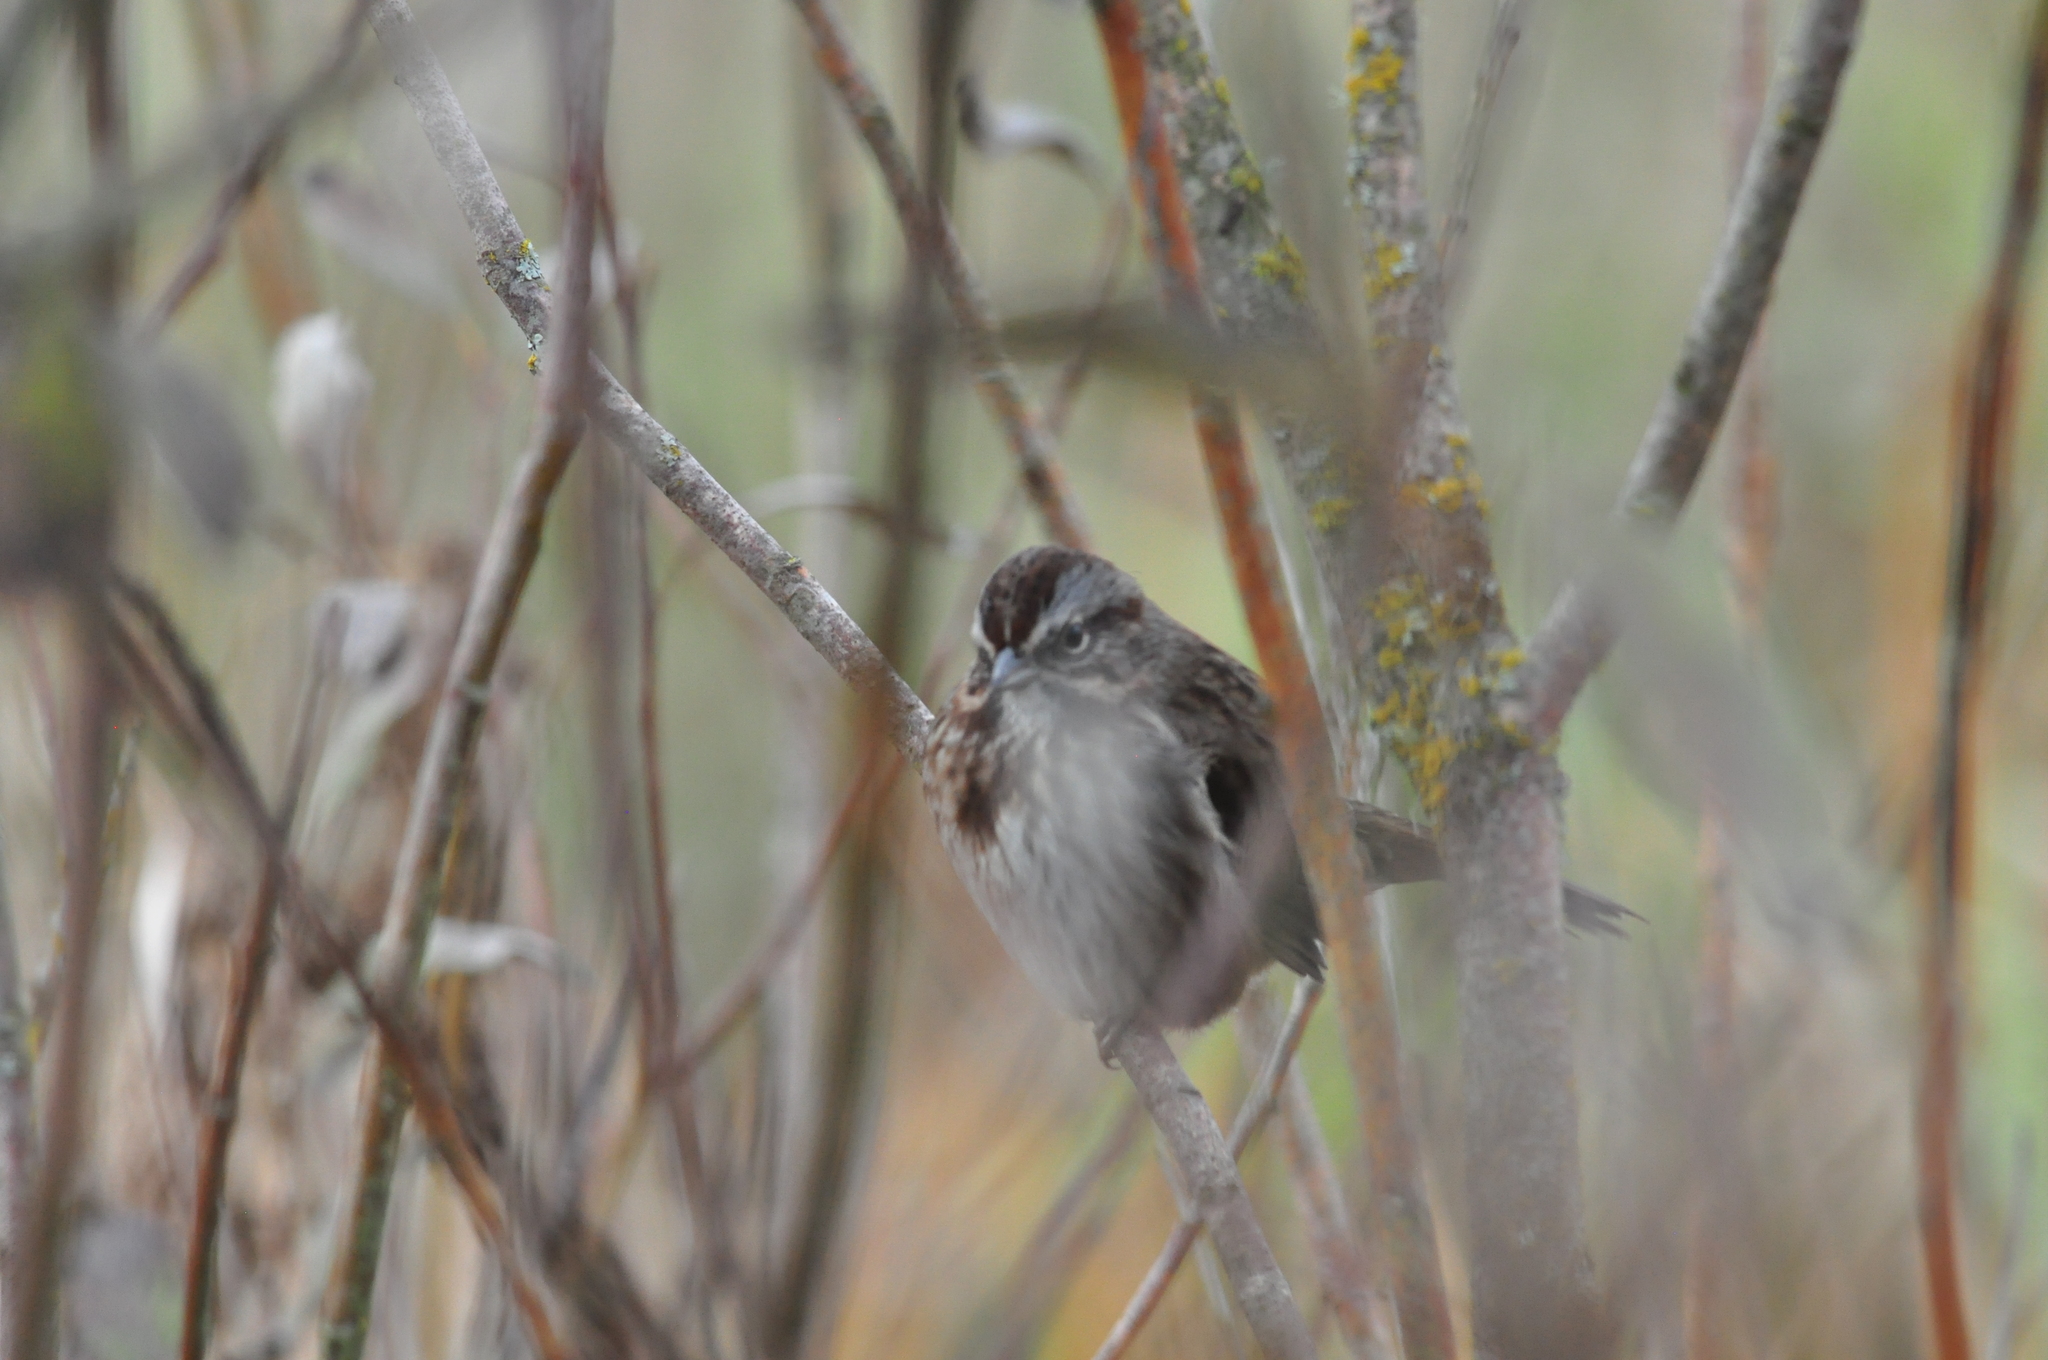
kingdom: Animalia
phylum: Chordata
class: Aves
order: Passeriformes
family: Passerellidae
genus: Melospiza
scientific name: Melospiza melodia
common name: Song sparrow
